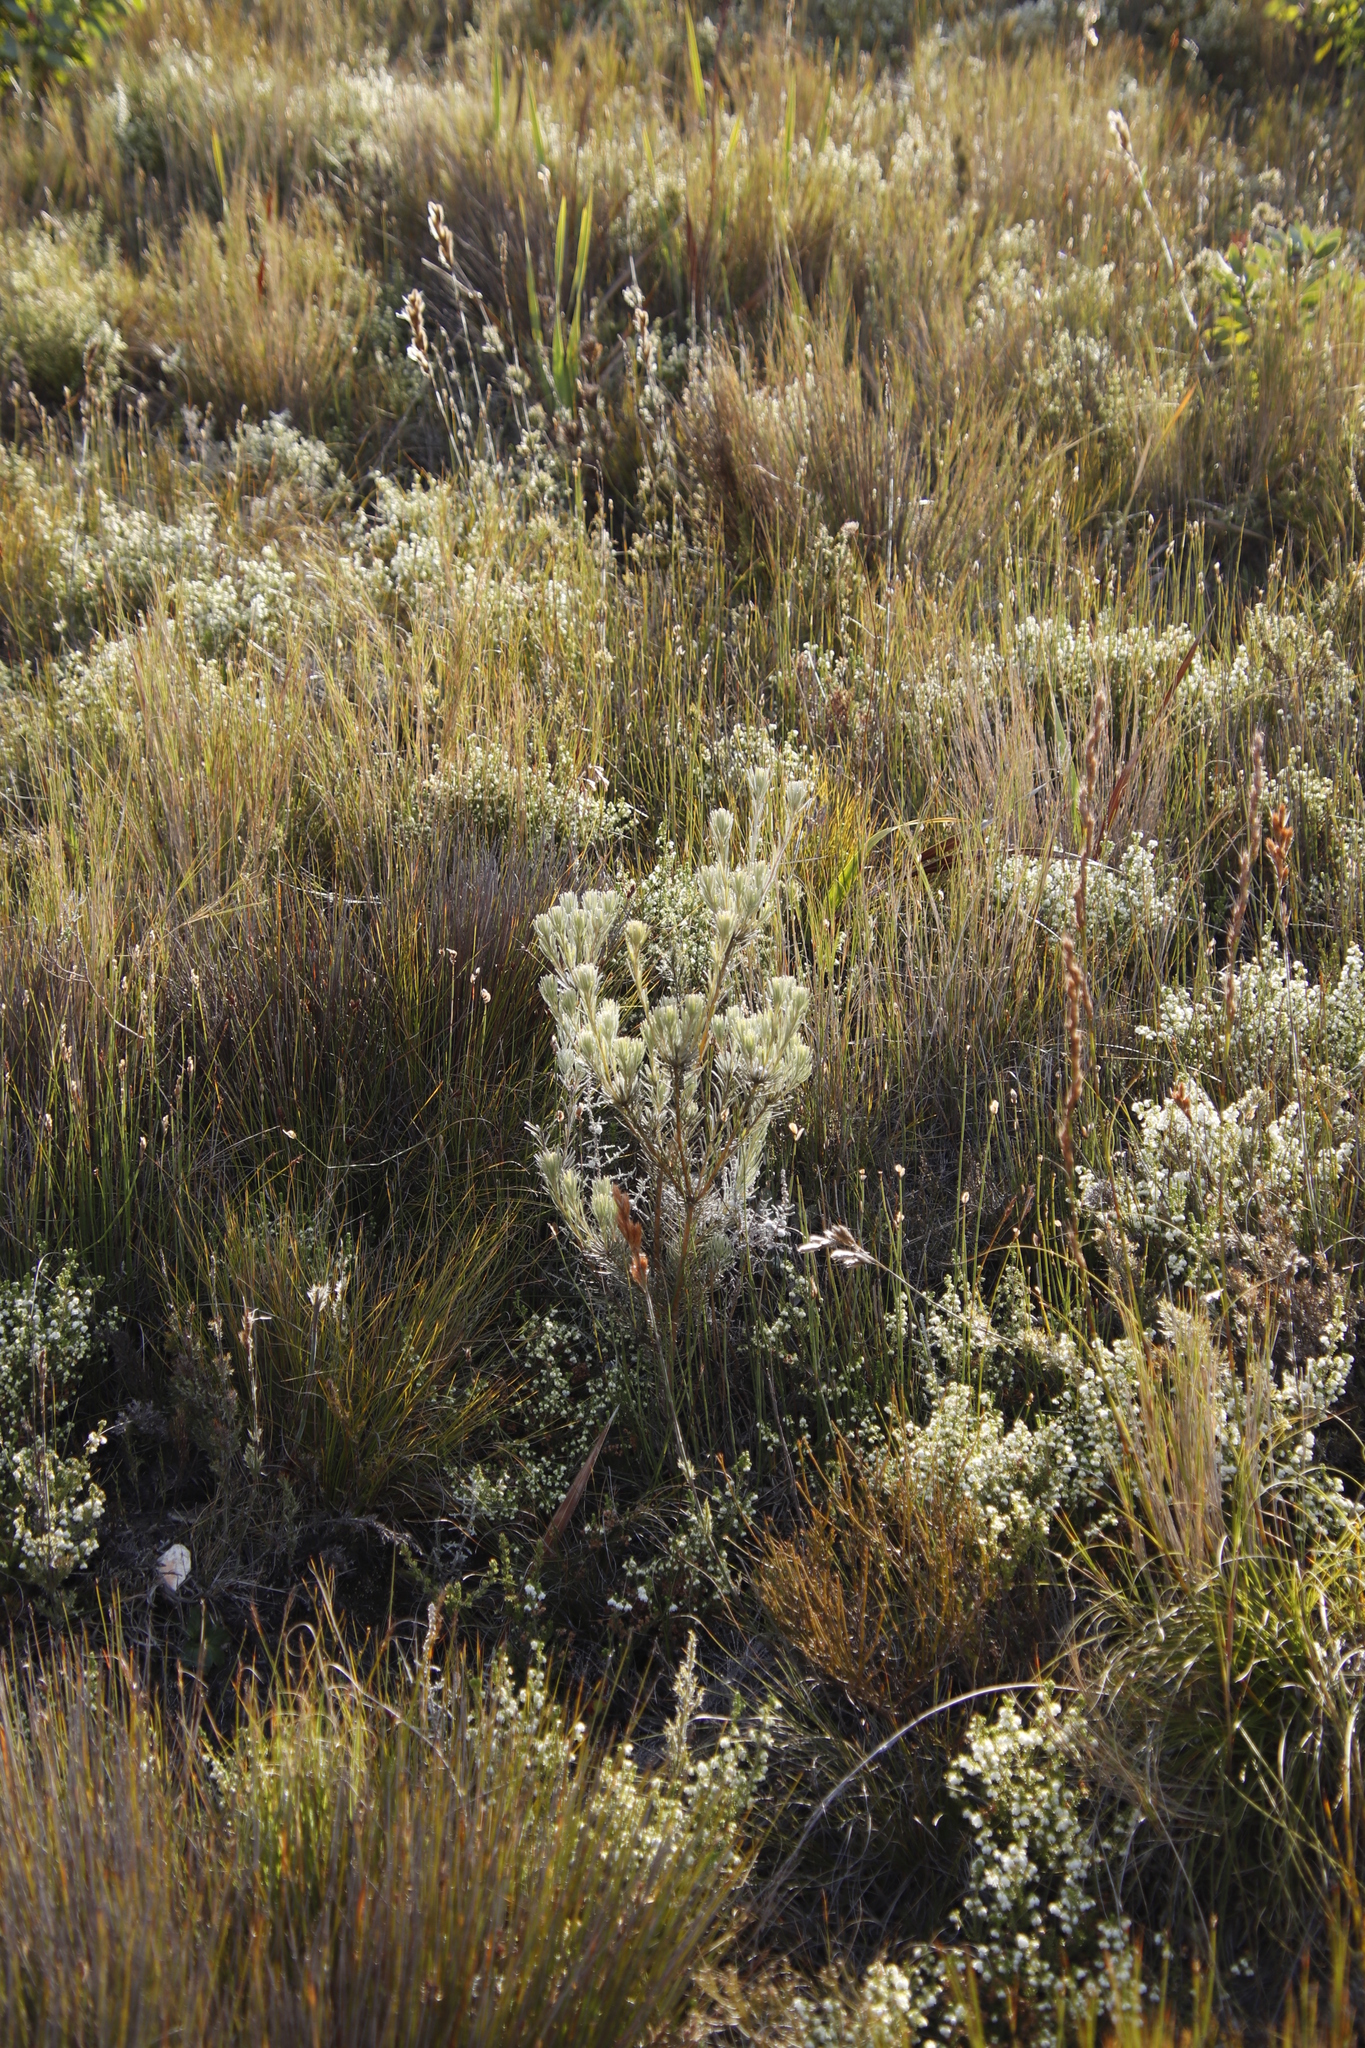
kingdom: Plantae
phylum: Tracheophyta
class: Magnoliopsida
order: Proteales
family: Proteaceae
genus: Leucadendron
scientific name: Leucadendron album
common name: Linear-leaf conebush
